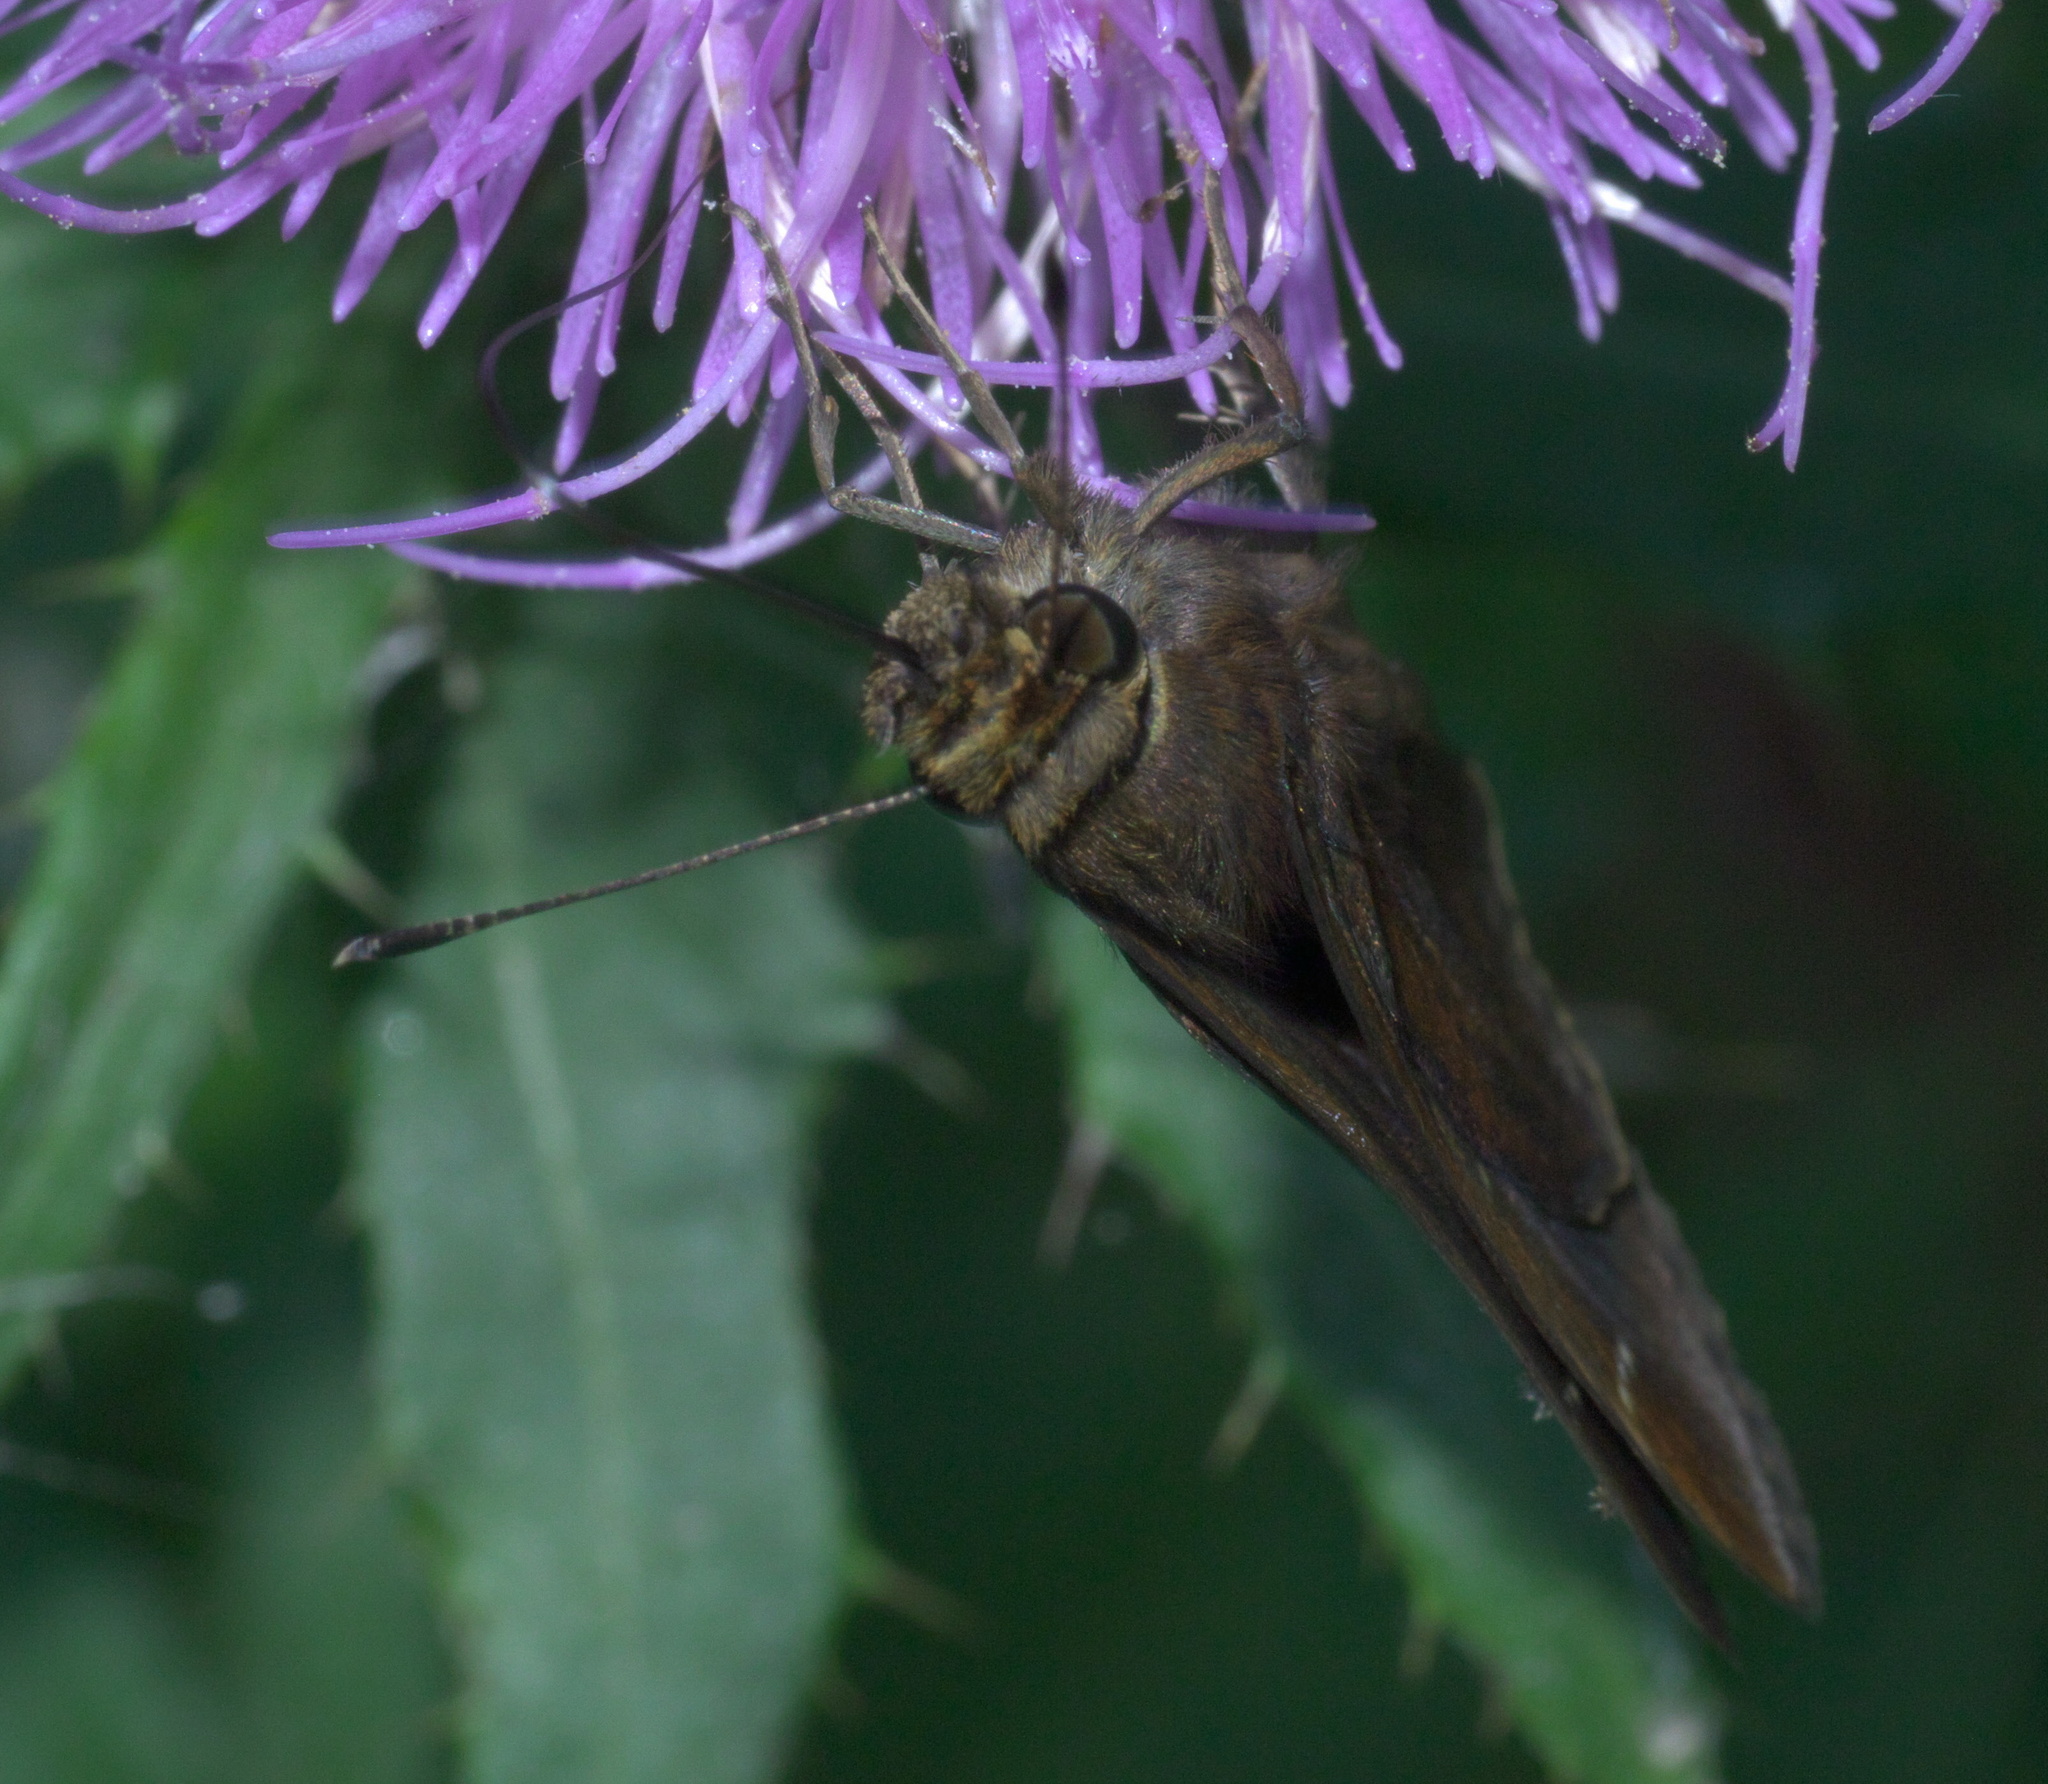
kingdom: Animalia
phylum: Arthropoda
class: Insecta
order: Lepidoptera
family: Hesperiidae
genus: Lerema
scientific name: Lerema accius
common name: Clouded skipper
